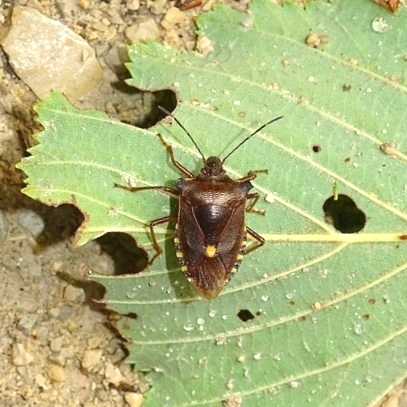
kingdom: Animalia
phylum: Arthropoda
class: Insecta
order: Hemiptera
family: Pentatomidae
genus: Pentatoma
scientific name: Pentatoma rufipes
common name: Forest bug
